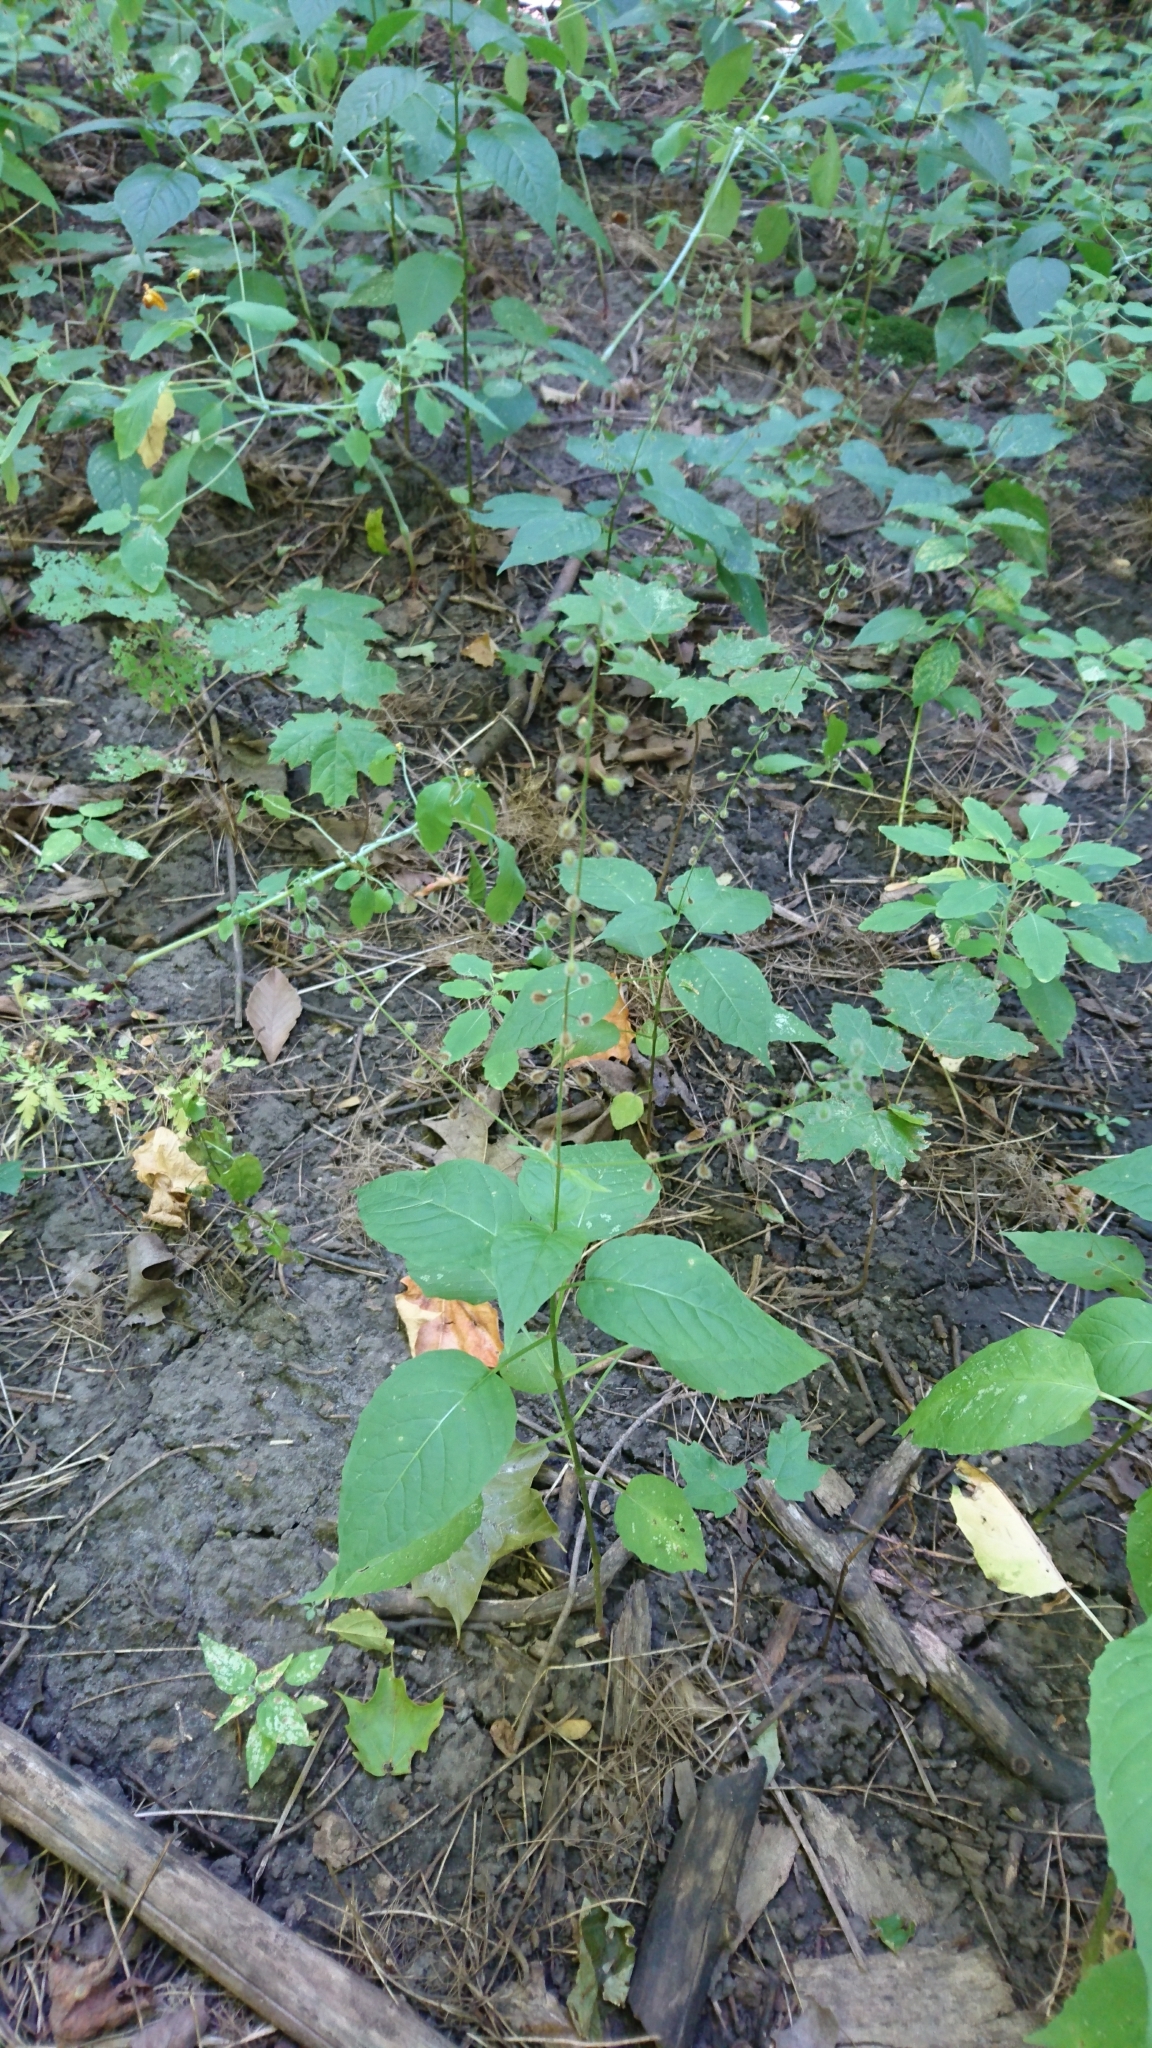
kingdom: Plantae
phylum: Tracheophyta
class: Magnoliopsida
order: Myrtales
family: Onagraceae
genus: Circaea
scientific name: Circaea canadensis
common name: Broad-leaved enchanter's nightshade
